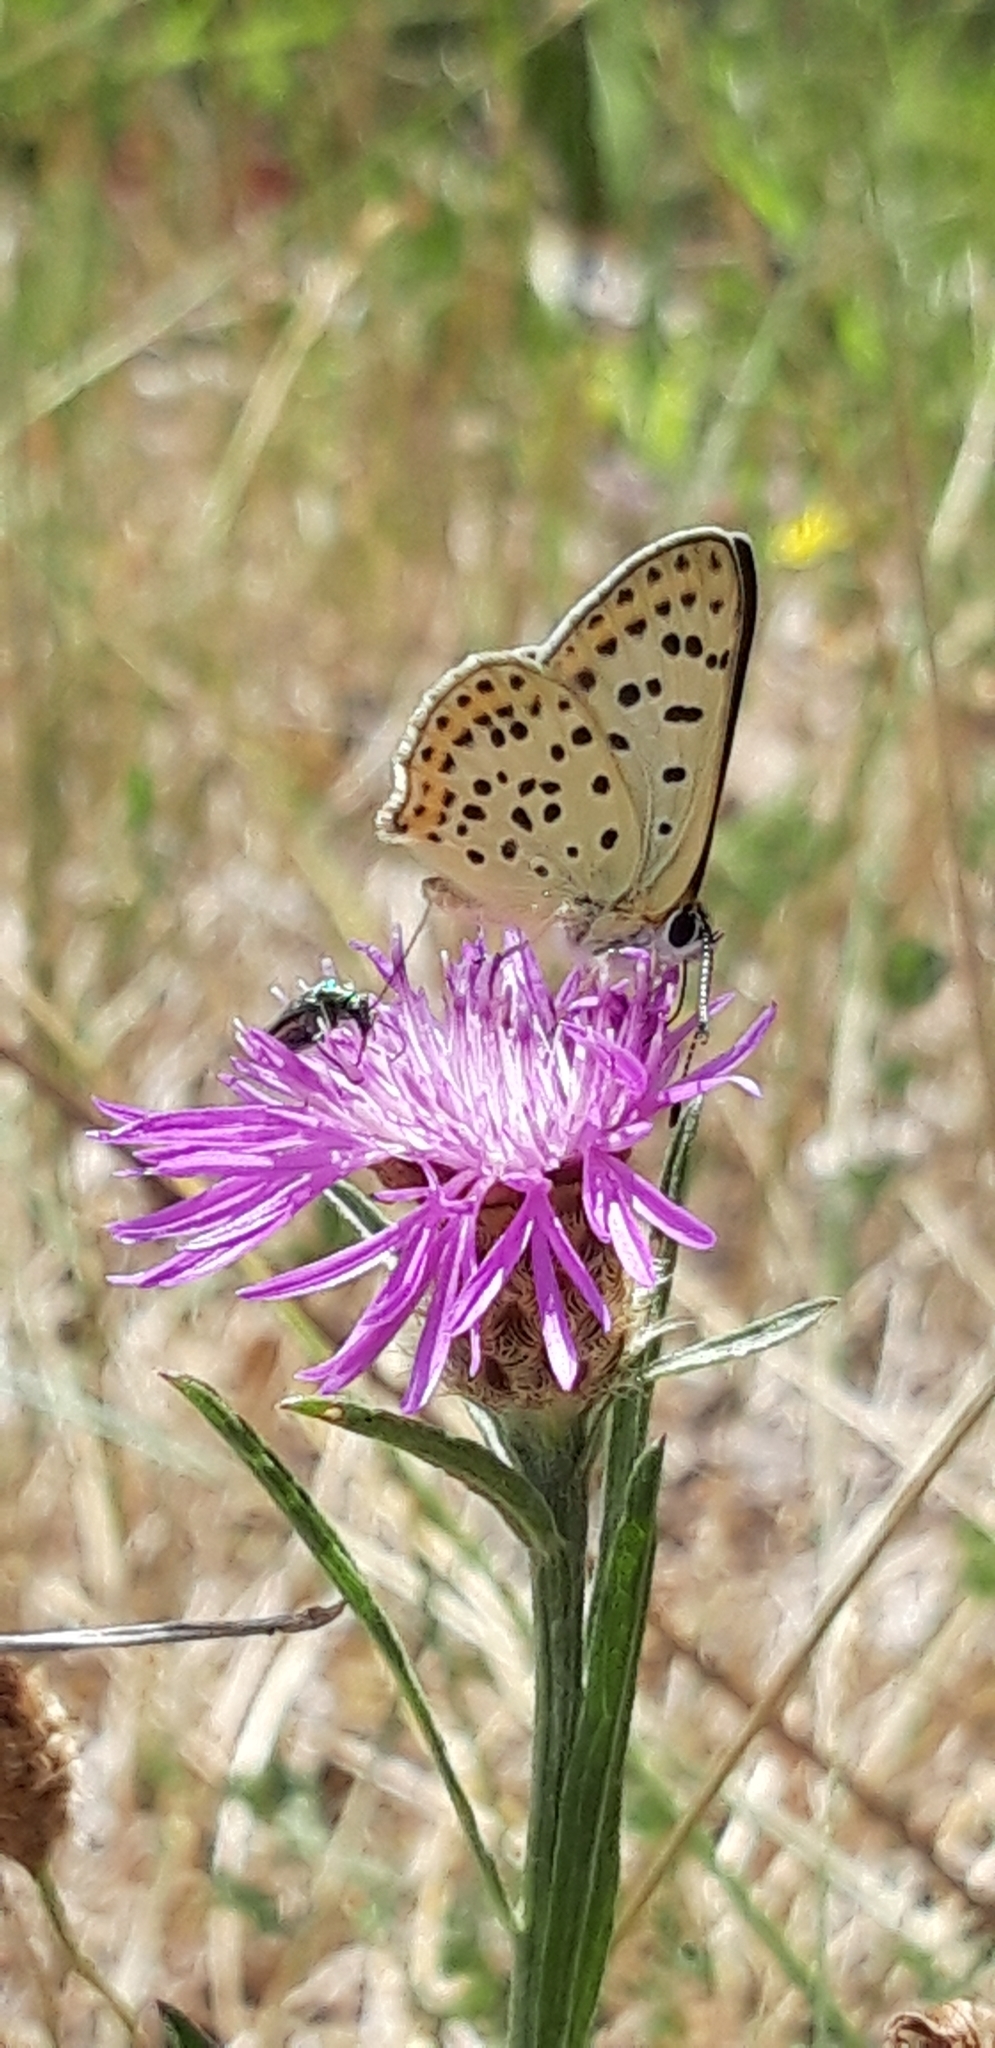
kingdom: Animalia
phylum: Arthropoda
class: Insecta
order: Lepidoptera
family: Lycaenidae
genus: Loweia
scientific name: Loweia tityrus
